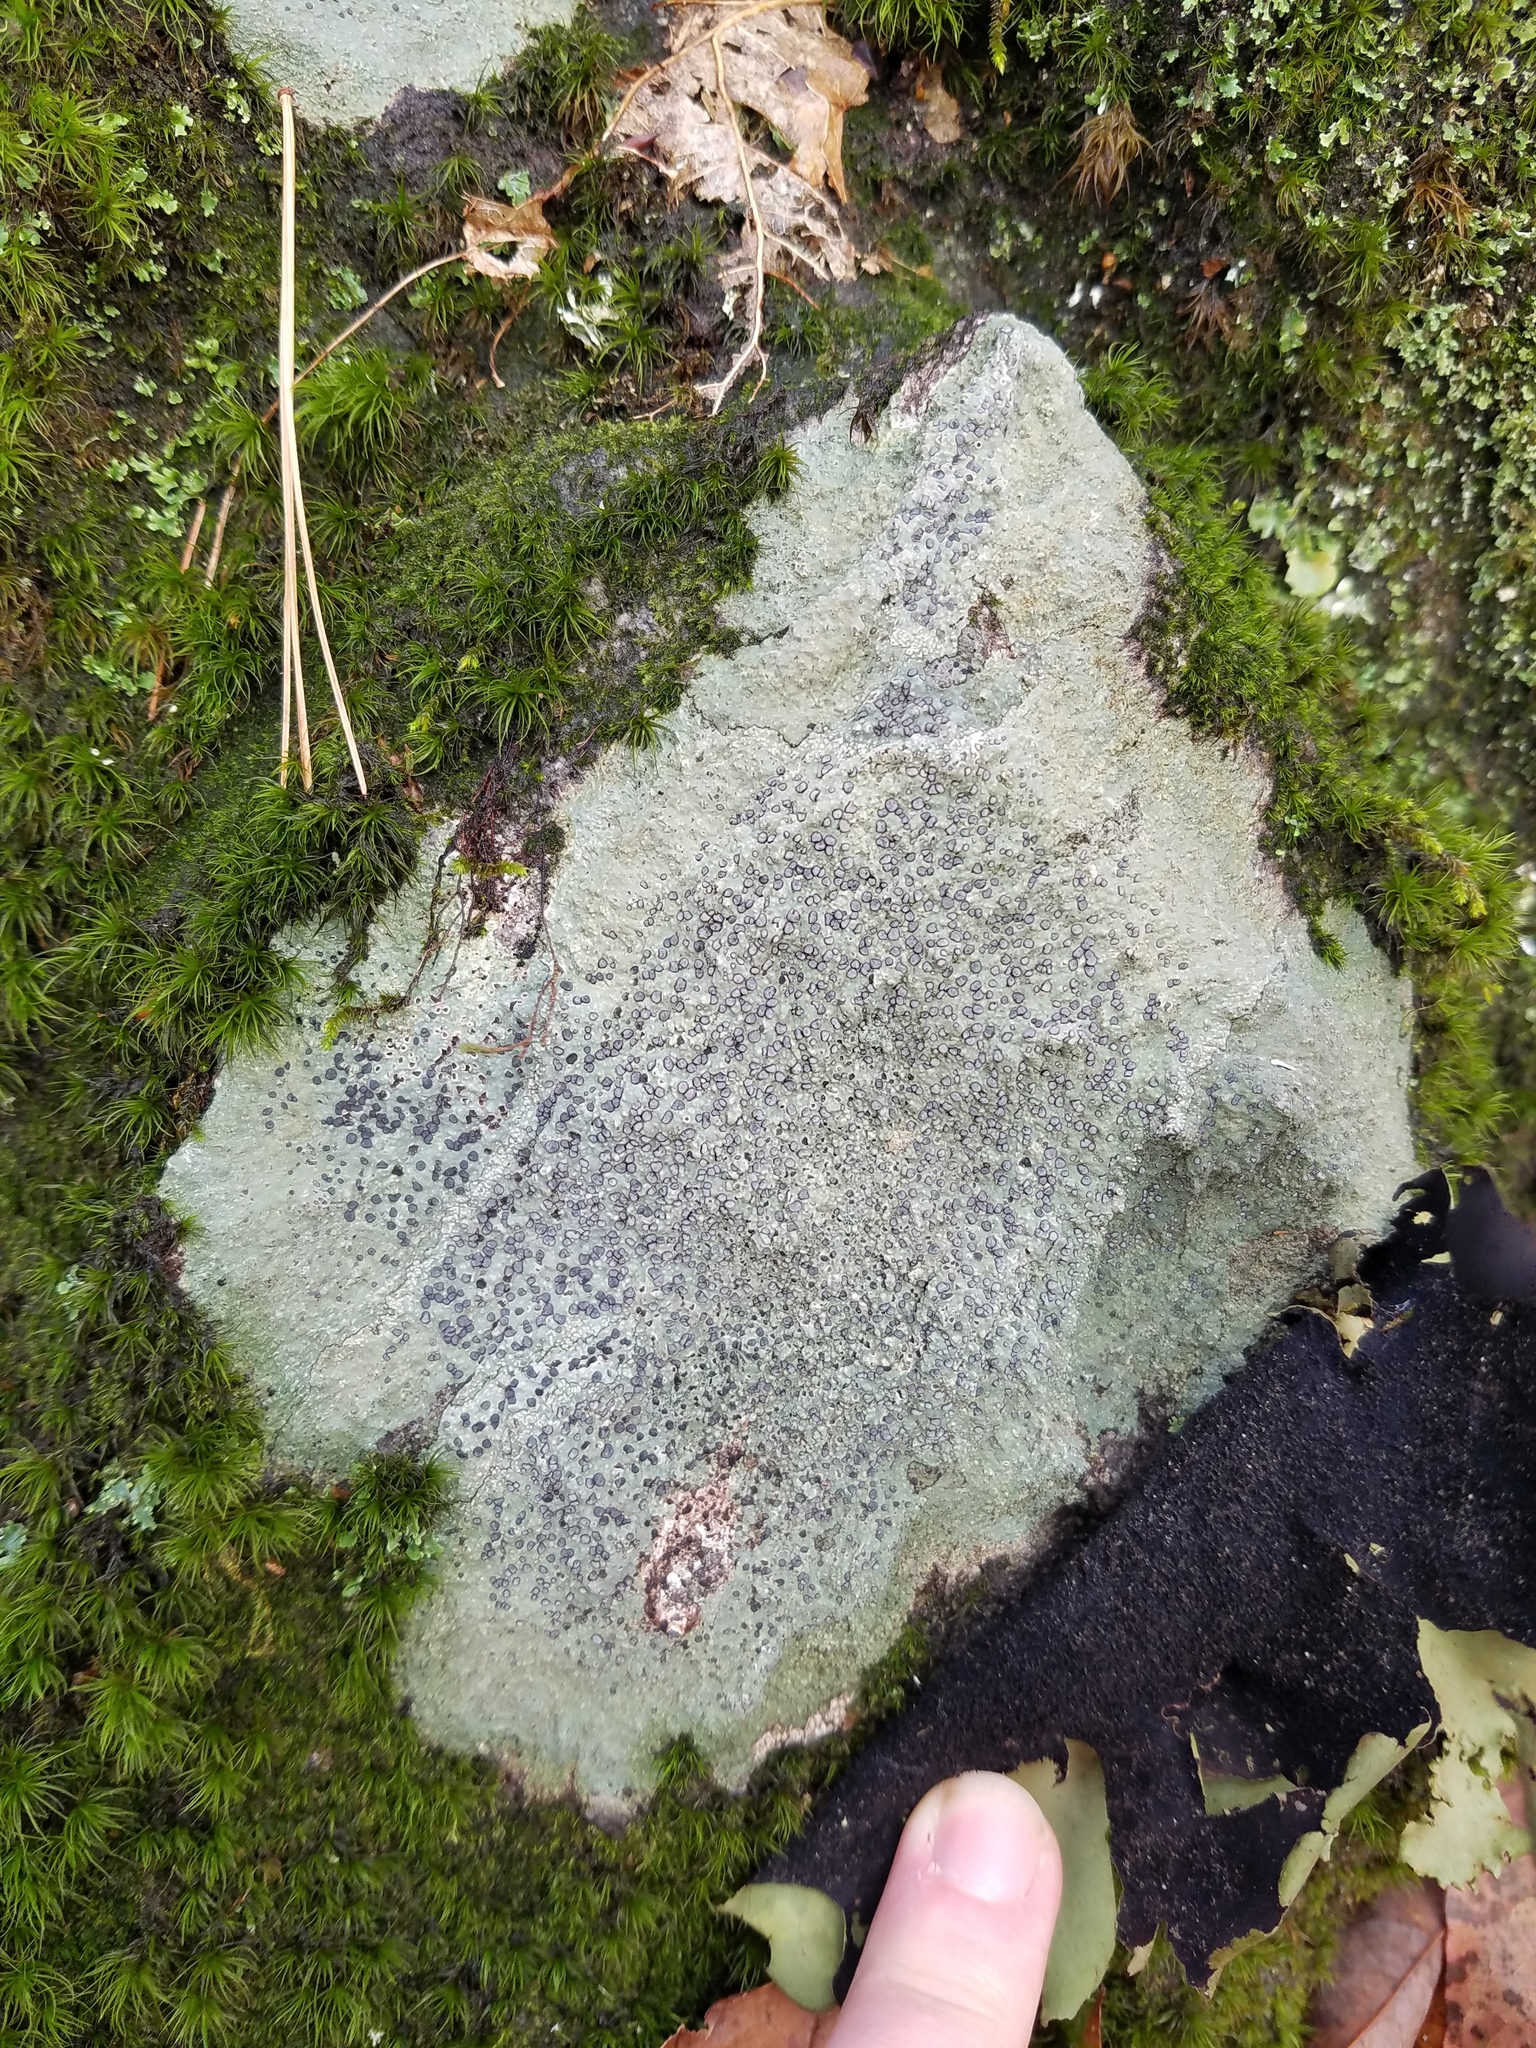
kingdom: Fungi
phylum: Ascomycota
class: Lecanoromycetes
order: Lecideales
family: Lecideaceae
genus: Porpidia
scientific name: Porpidia albocaerulescens
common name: Smokey-eyed boulder lichen
